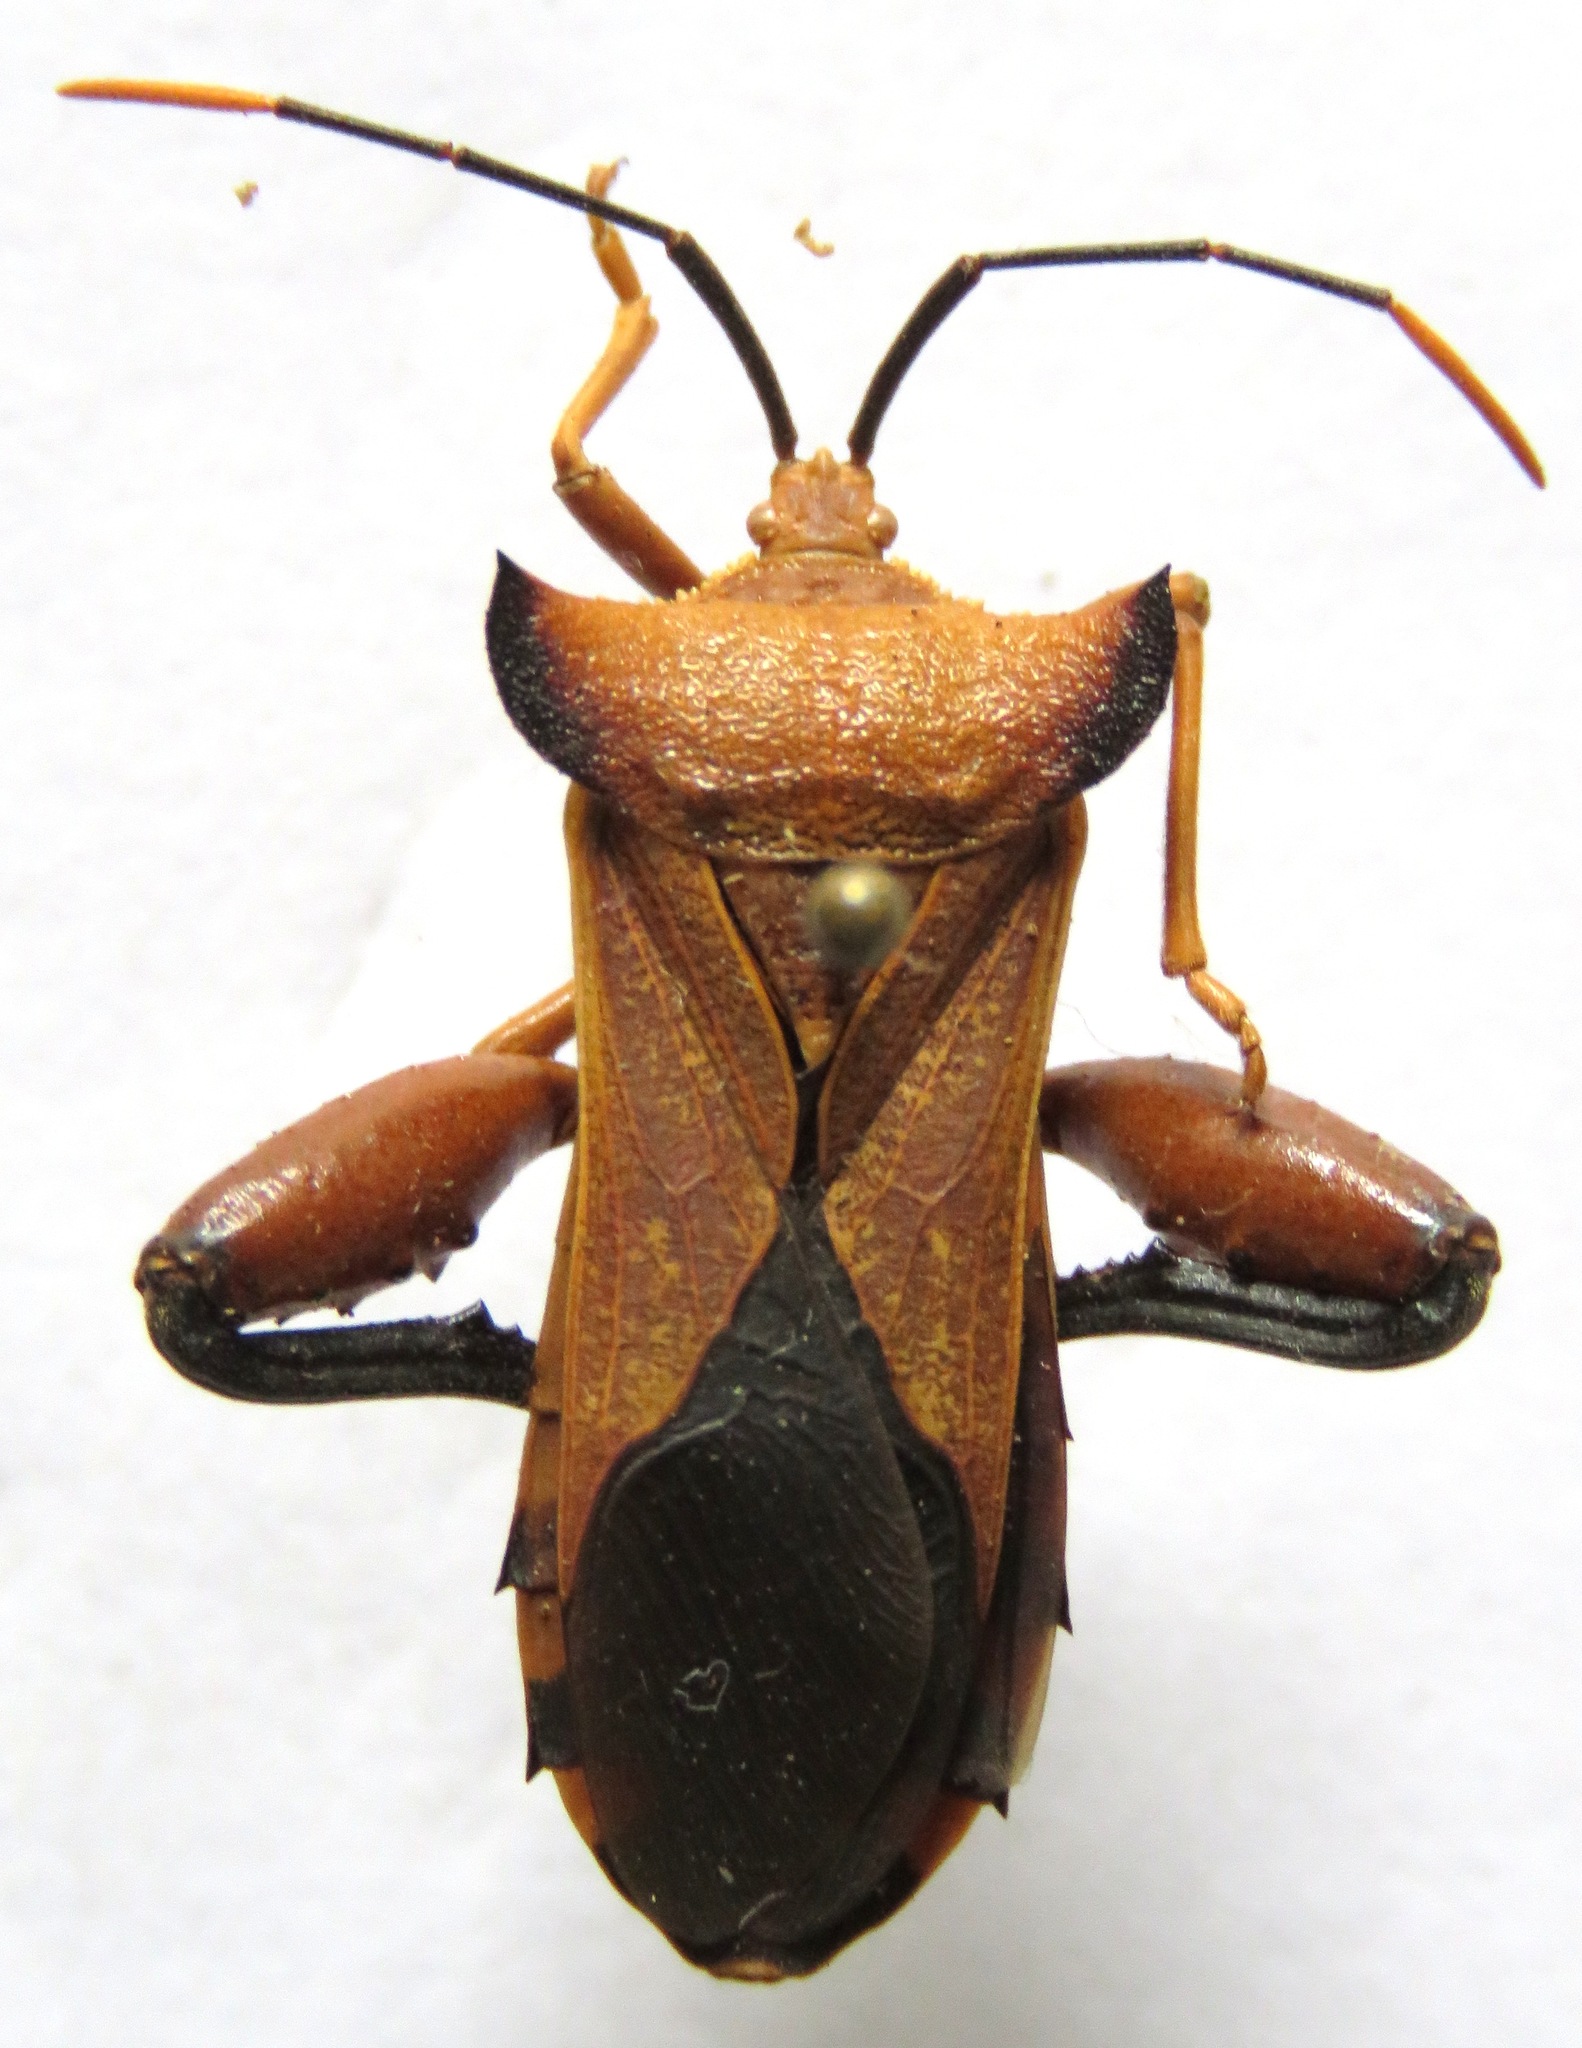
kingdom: Animalia
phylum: Arthropoda
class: Insecta
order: Hemiptera
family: Coreidae
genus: Mozena
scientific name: Mozena lunata
